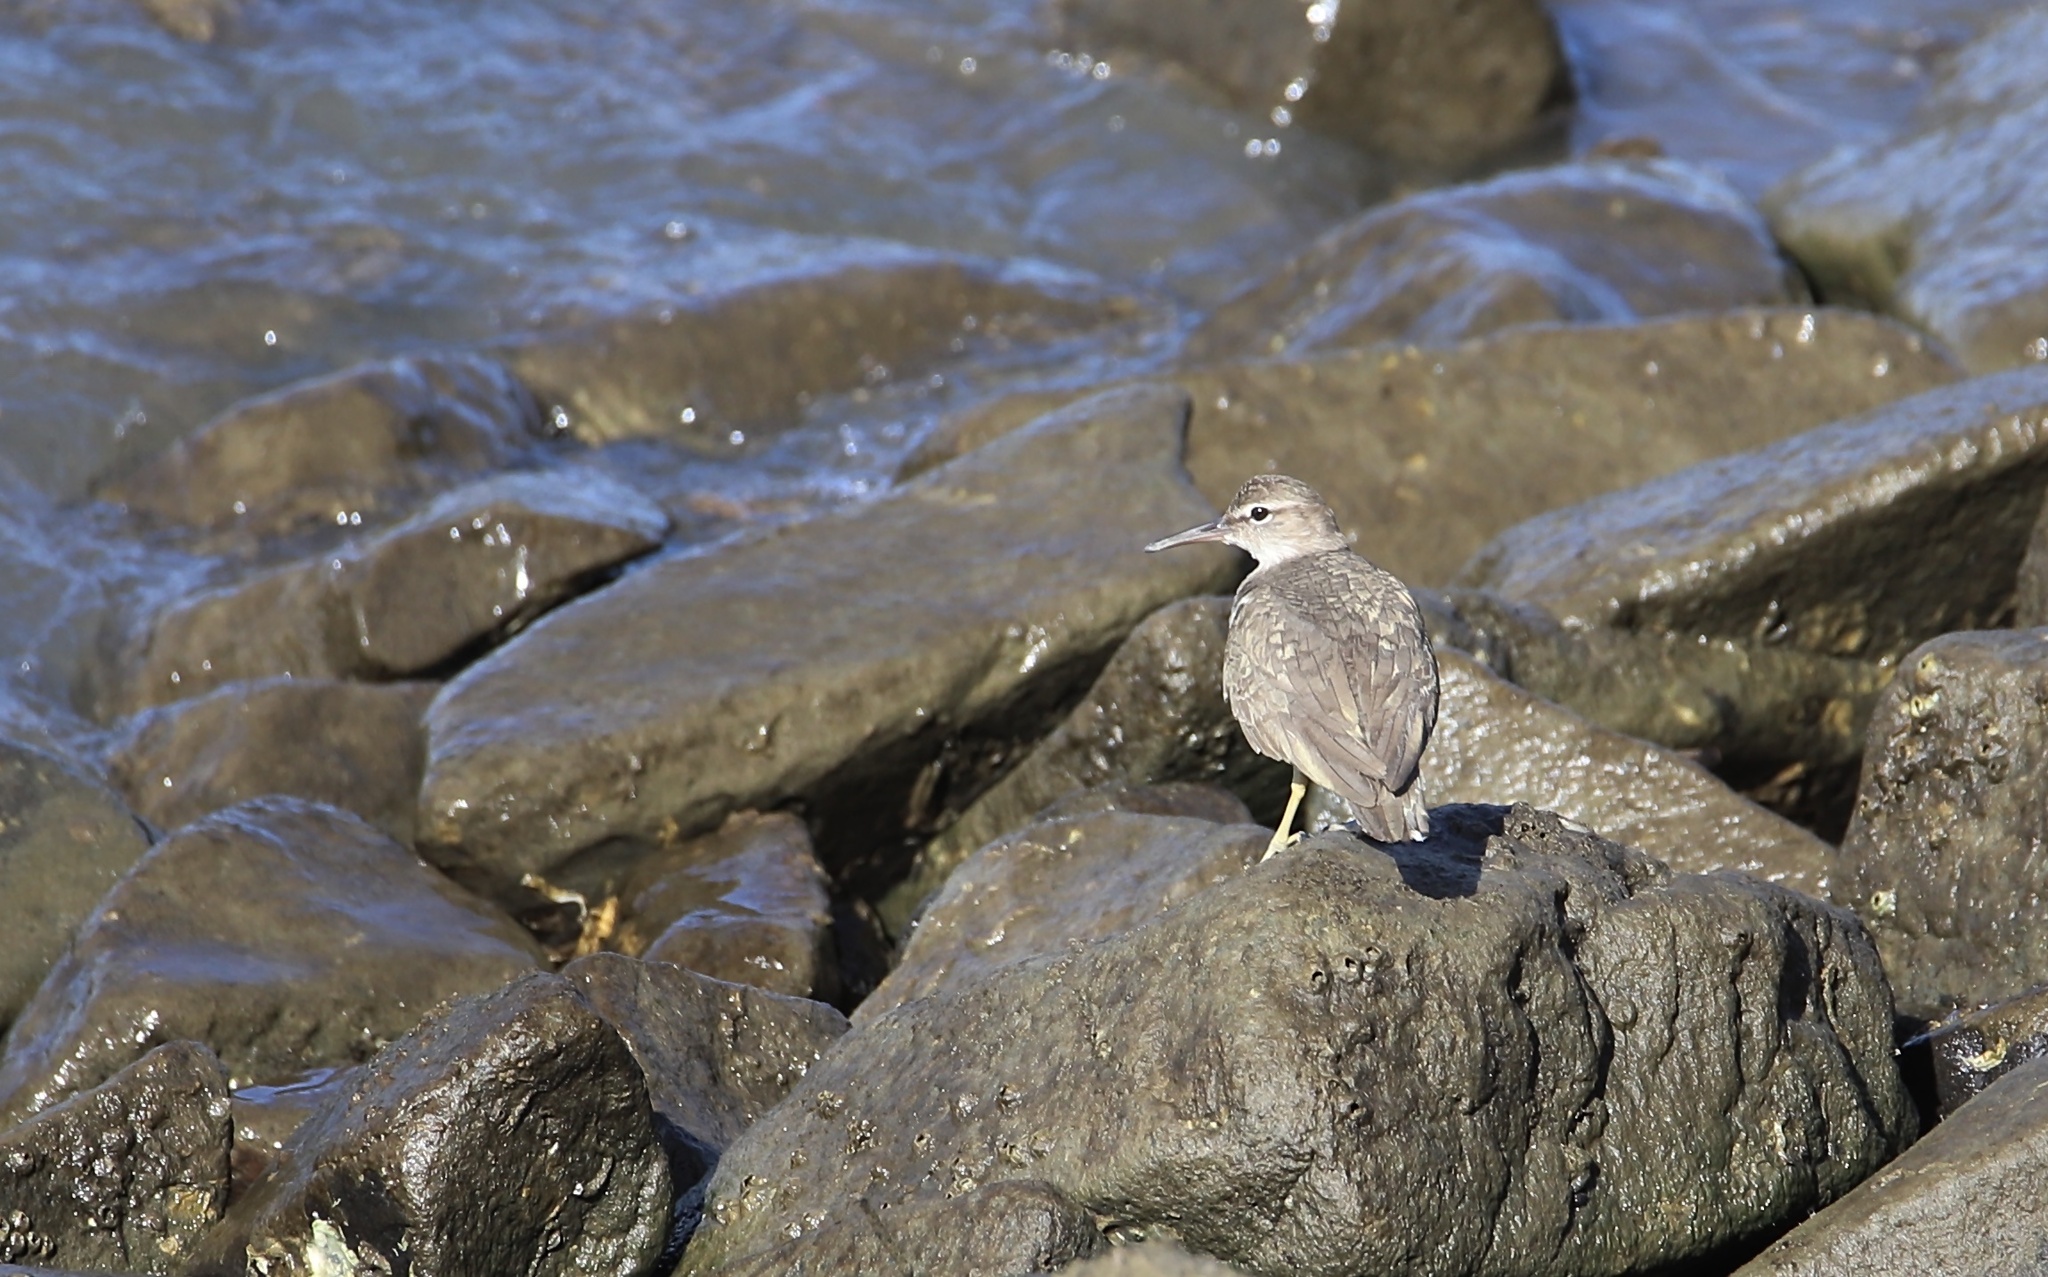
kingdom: Animalia
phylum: Chordata
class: Aves
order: Charadriiformes
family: Scolopacidae
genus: Actitis
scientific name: Actitis macularius
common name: Spotted sandpiper
